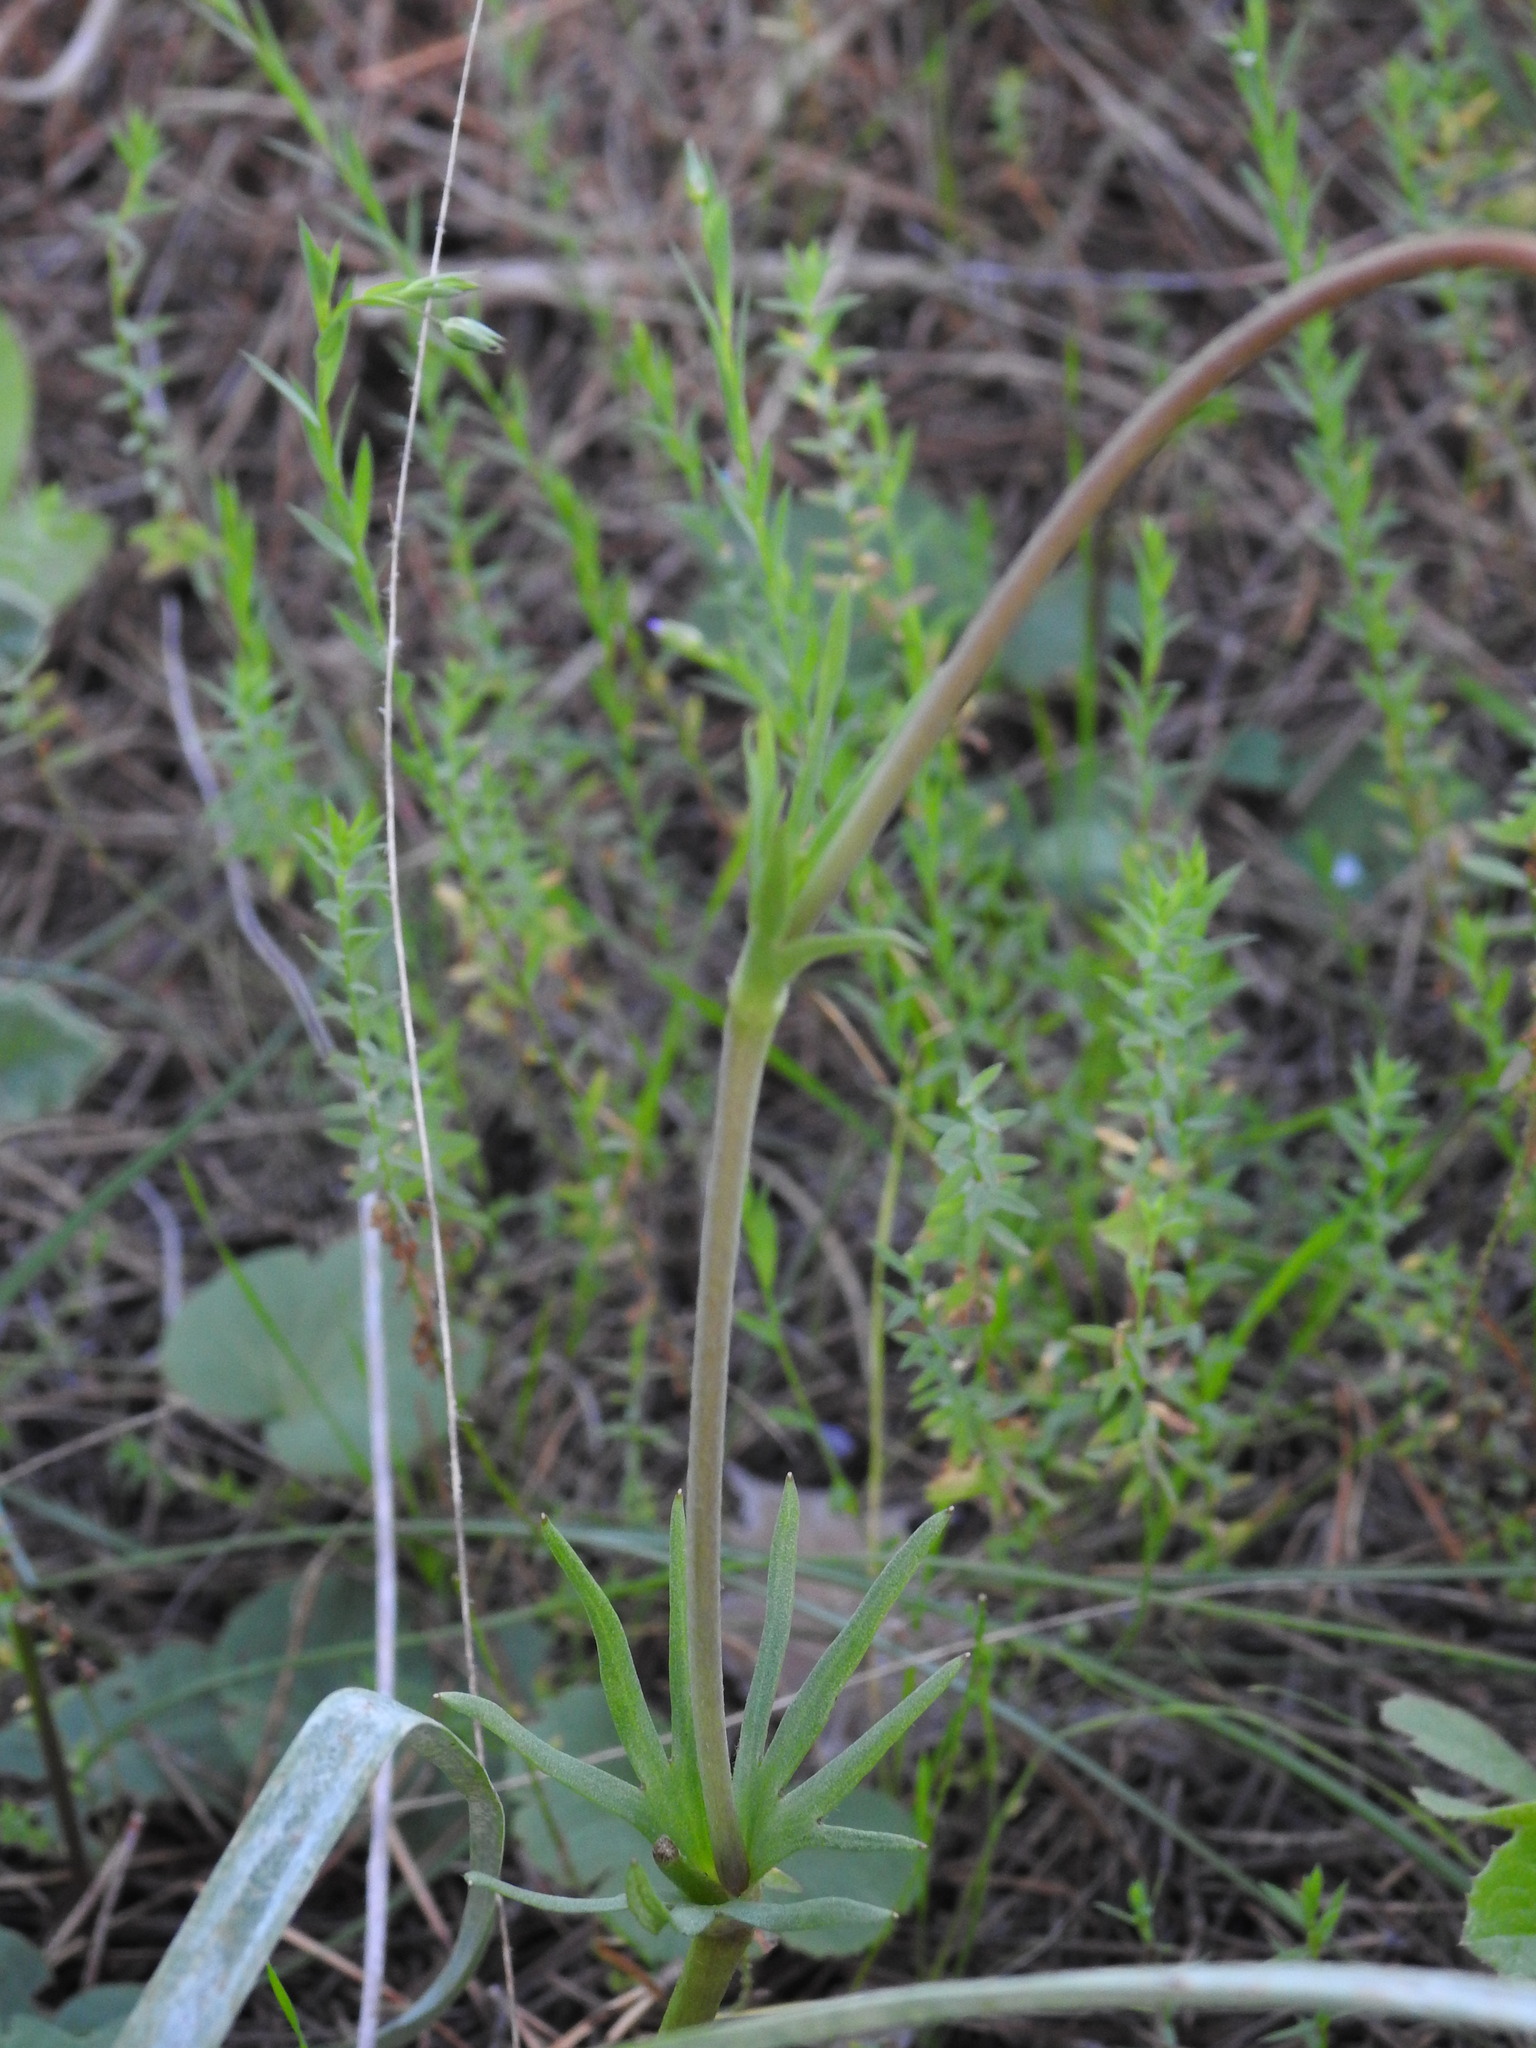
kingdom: Plantae
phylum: Tracheophyta
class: Magnoliopsida
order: Ranunculales
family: Ranunculaceae
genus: Anemone
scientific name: Anemone palmata
